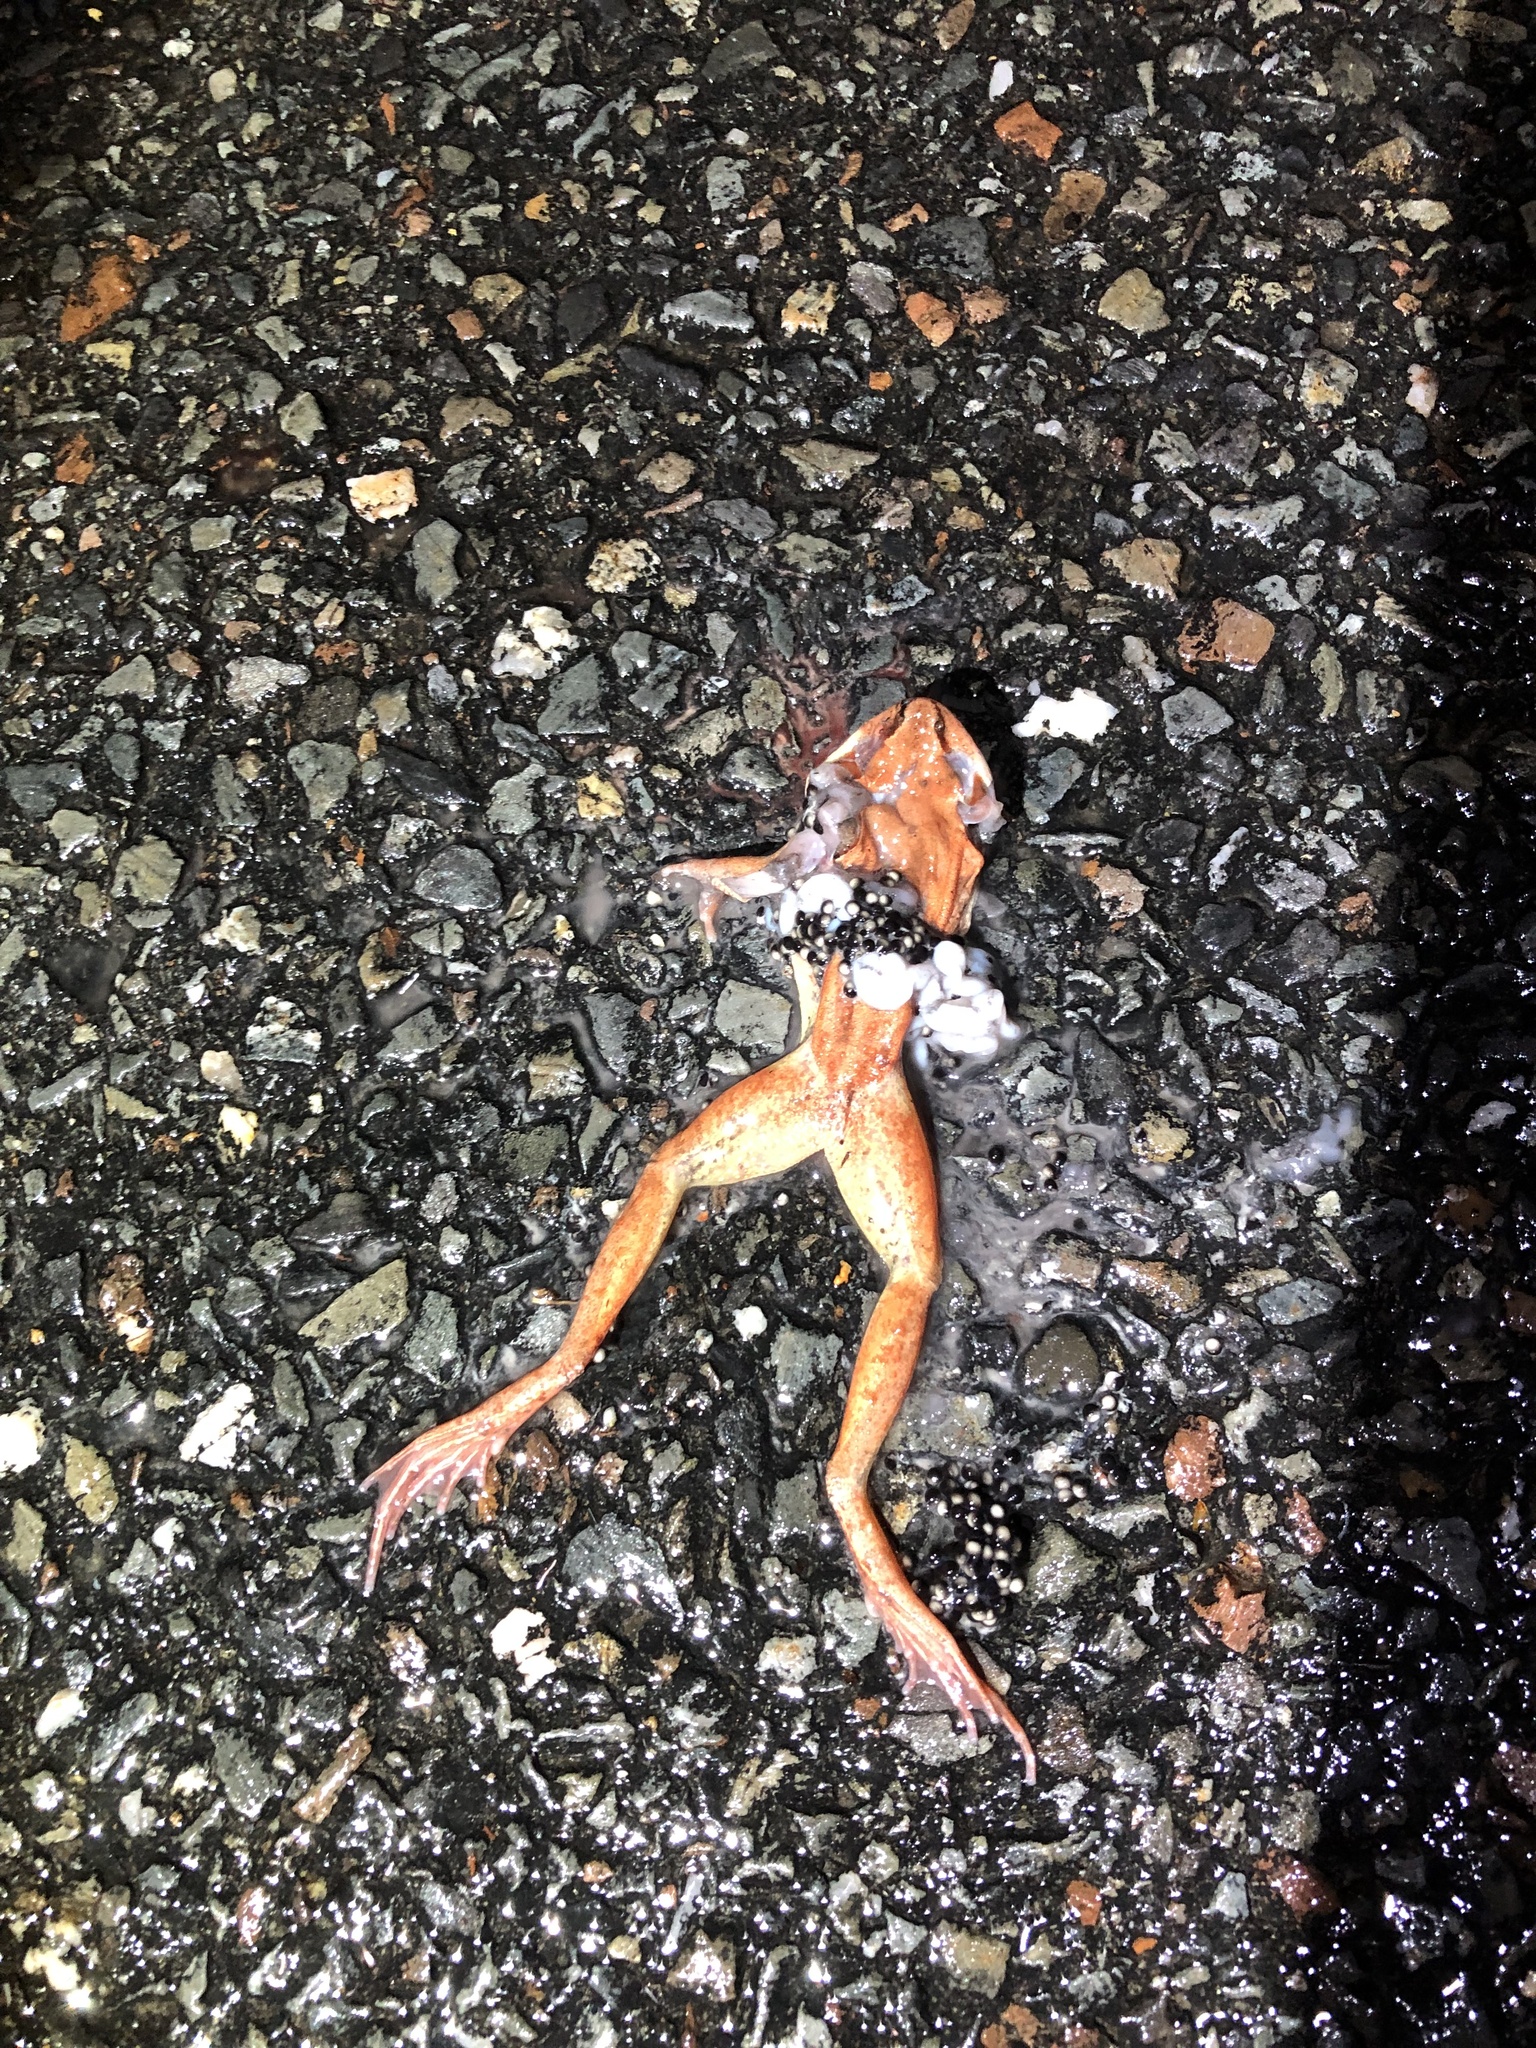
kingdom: Animalia
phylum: Chordata
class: Amphibia
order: Anura
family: Ranidae
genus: Lithobates
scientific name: Lithobates sylvaticus
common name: Wood frog
